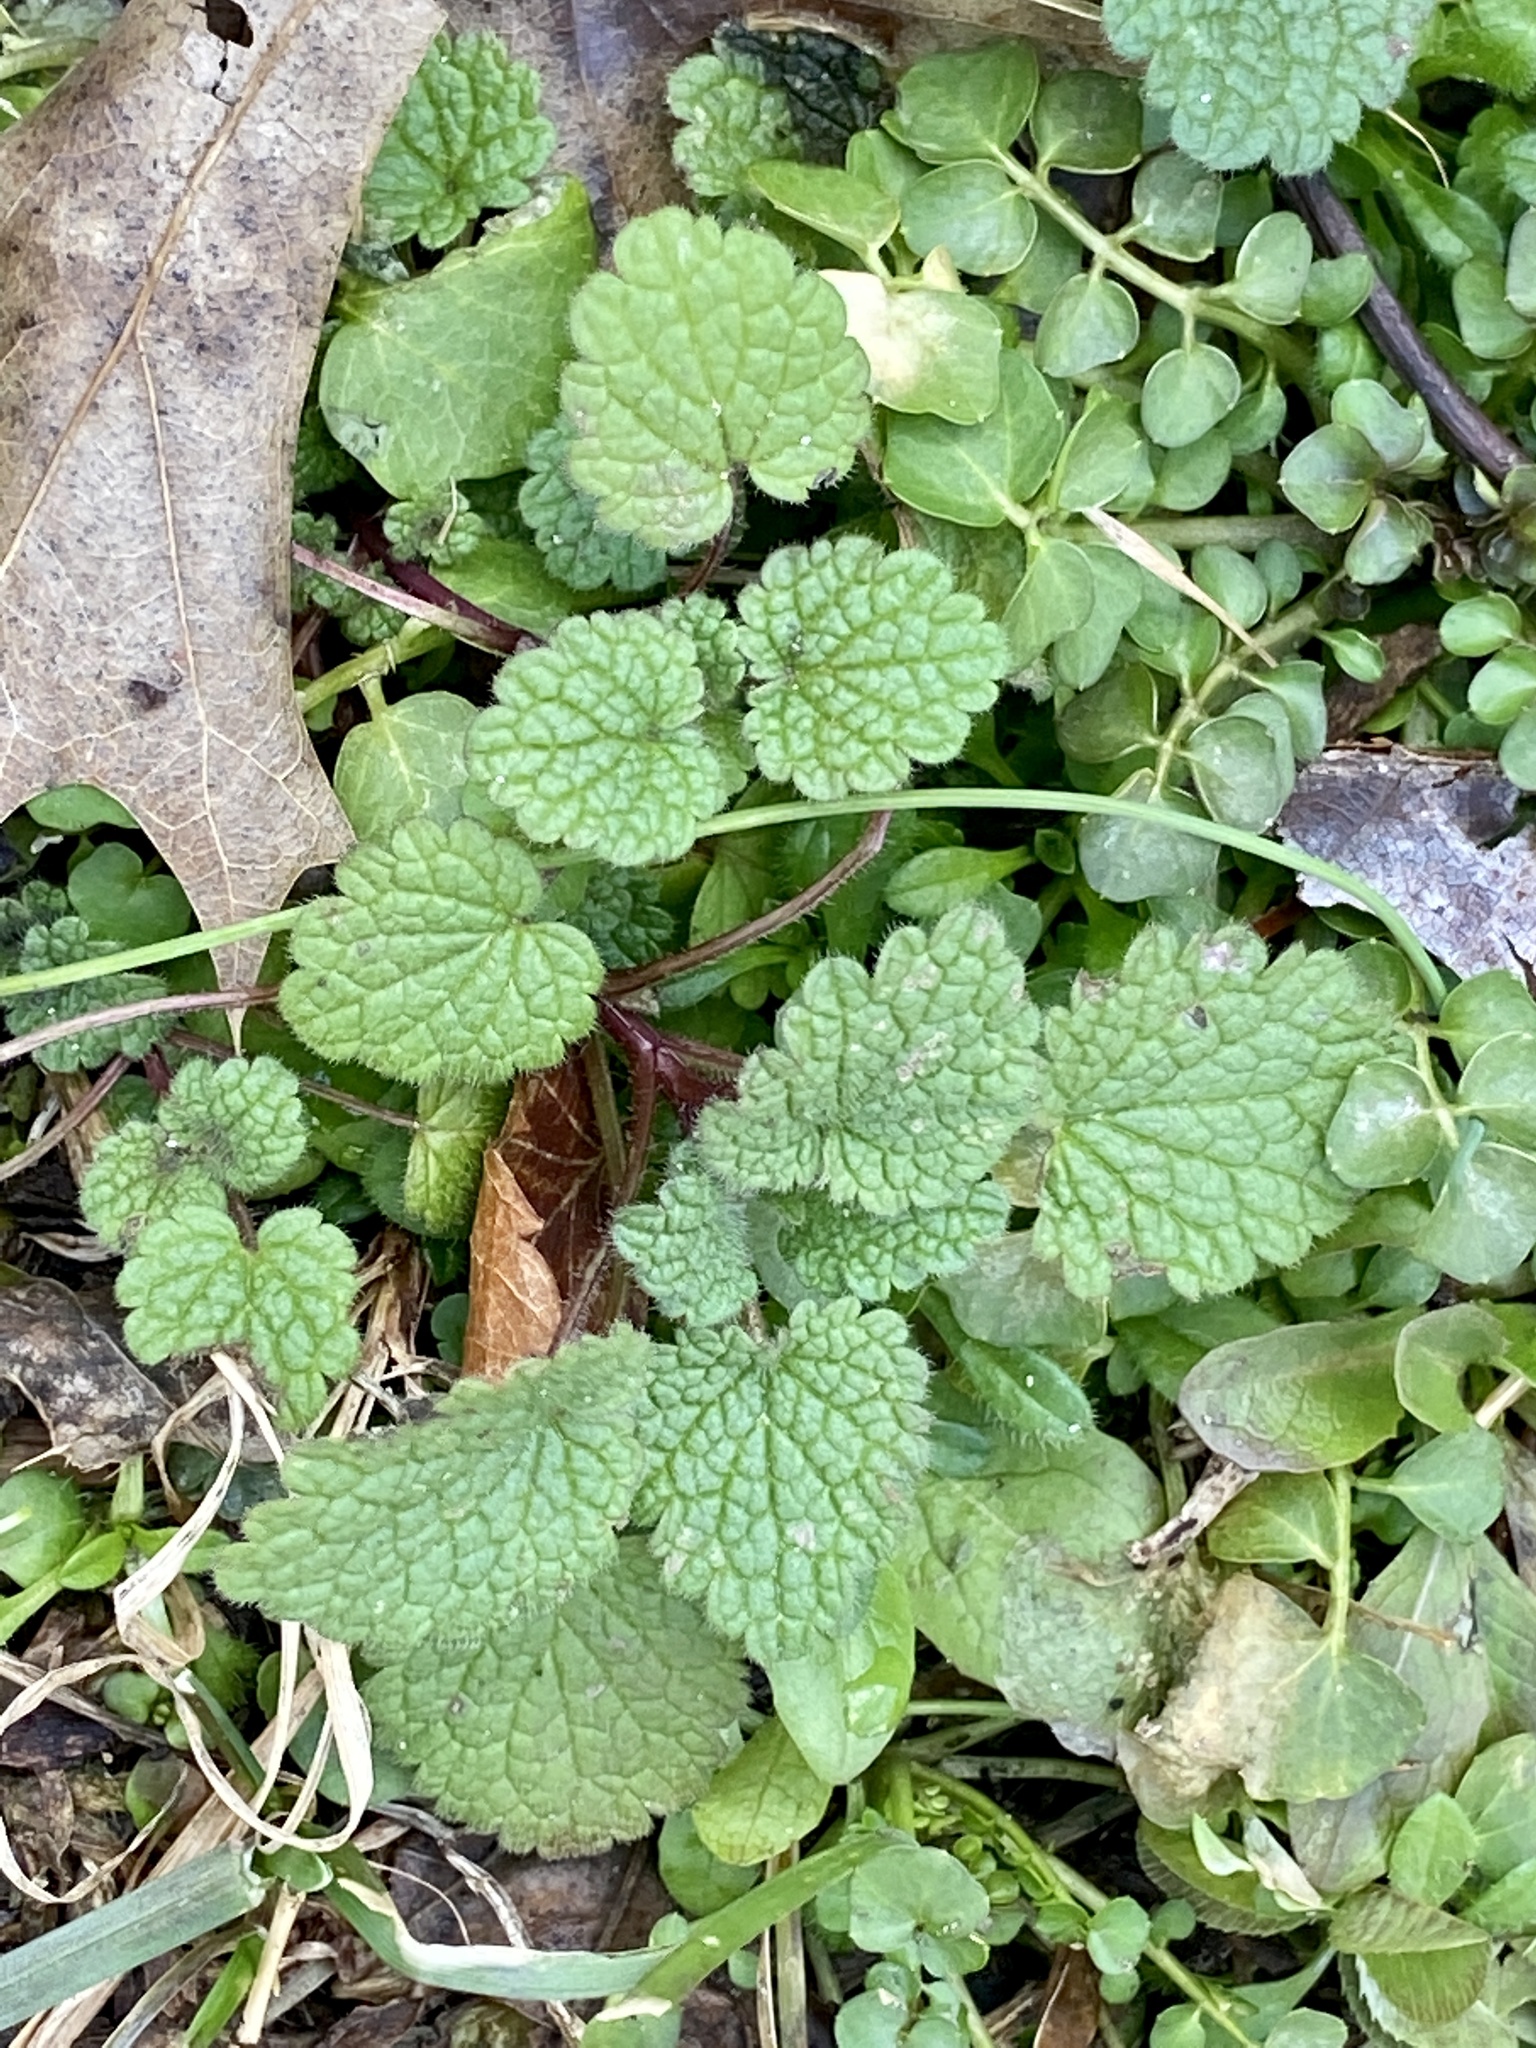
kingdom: Plantae
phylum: Tracheophyta
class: Magnoliopsida
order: Lamiales
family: Lamiaceae
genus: Lamium
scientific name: Lamium purpureum
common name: Red dead-nettle
